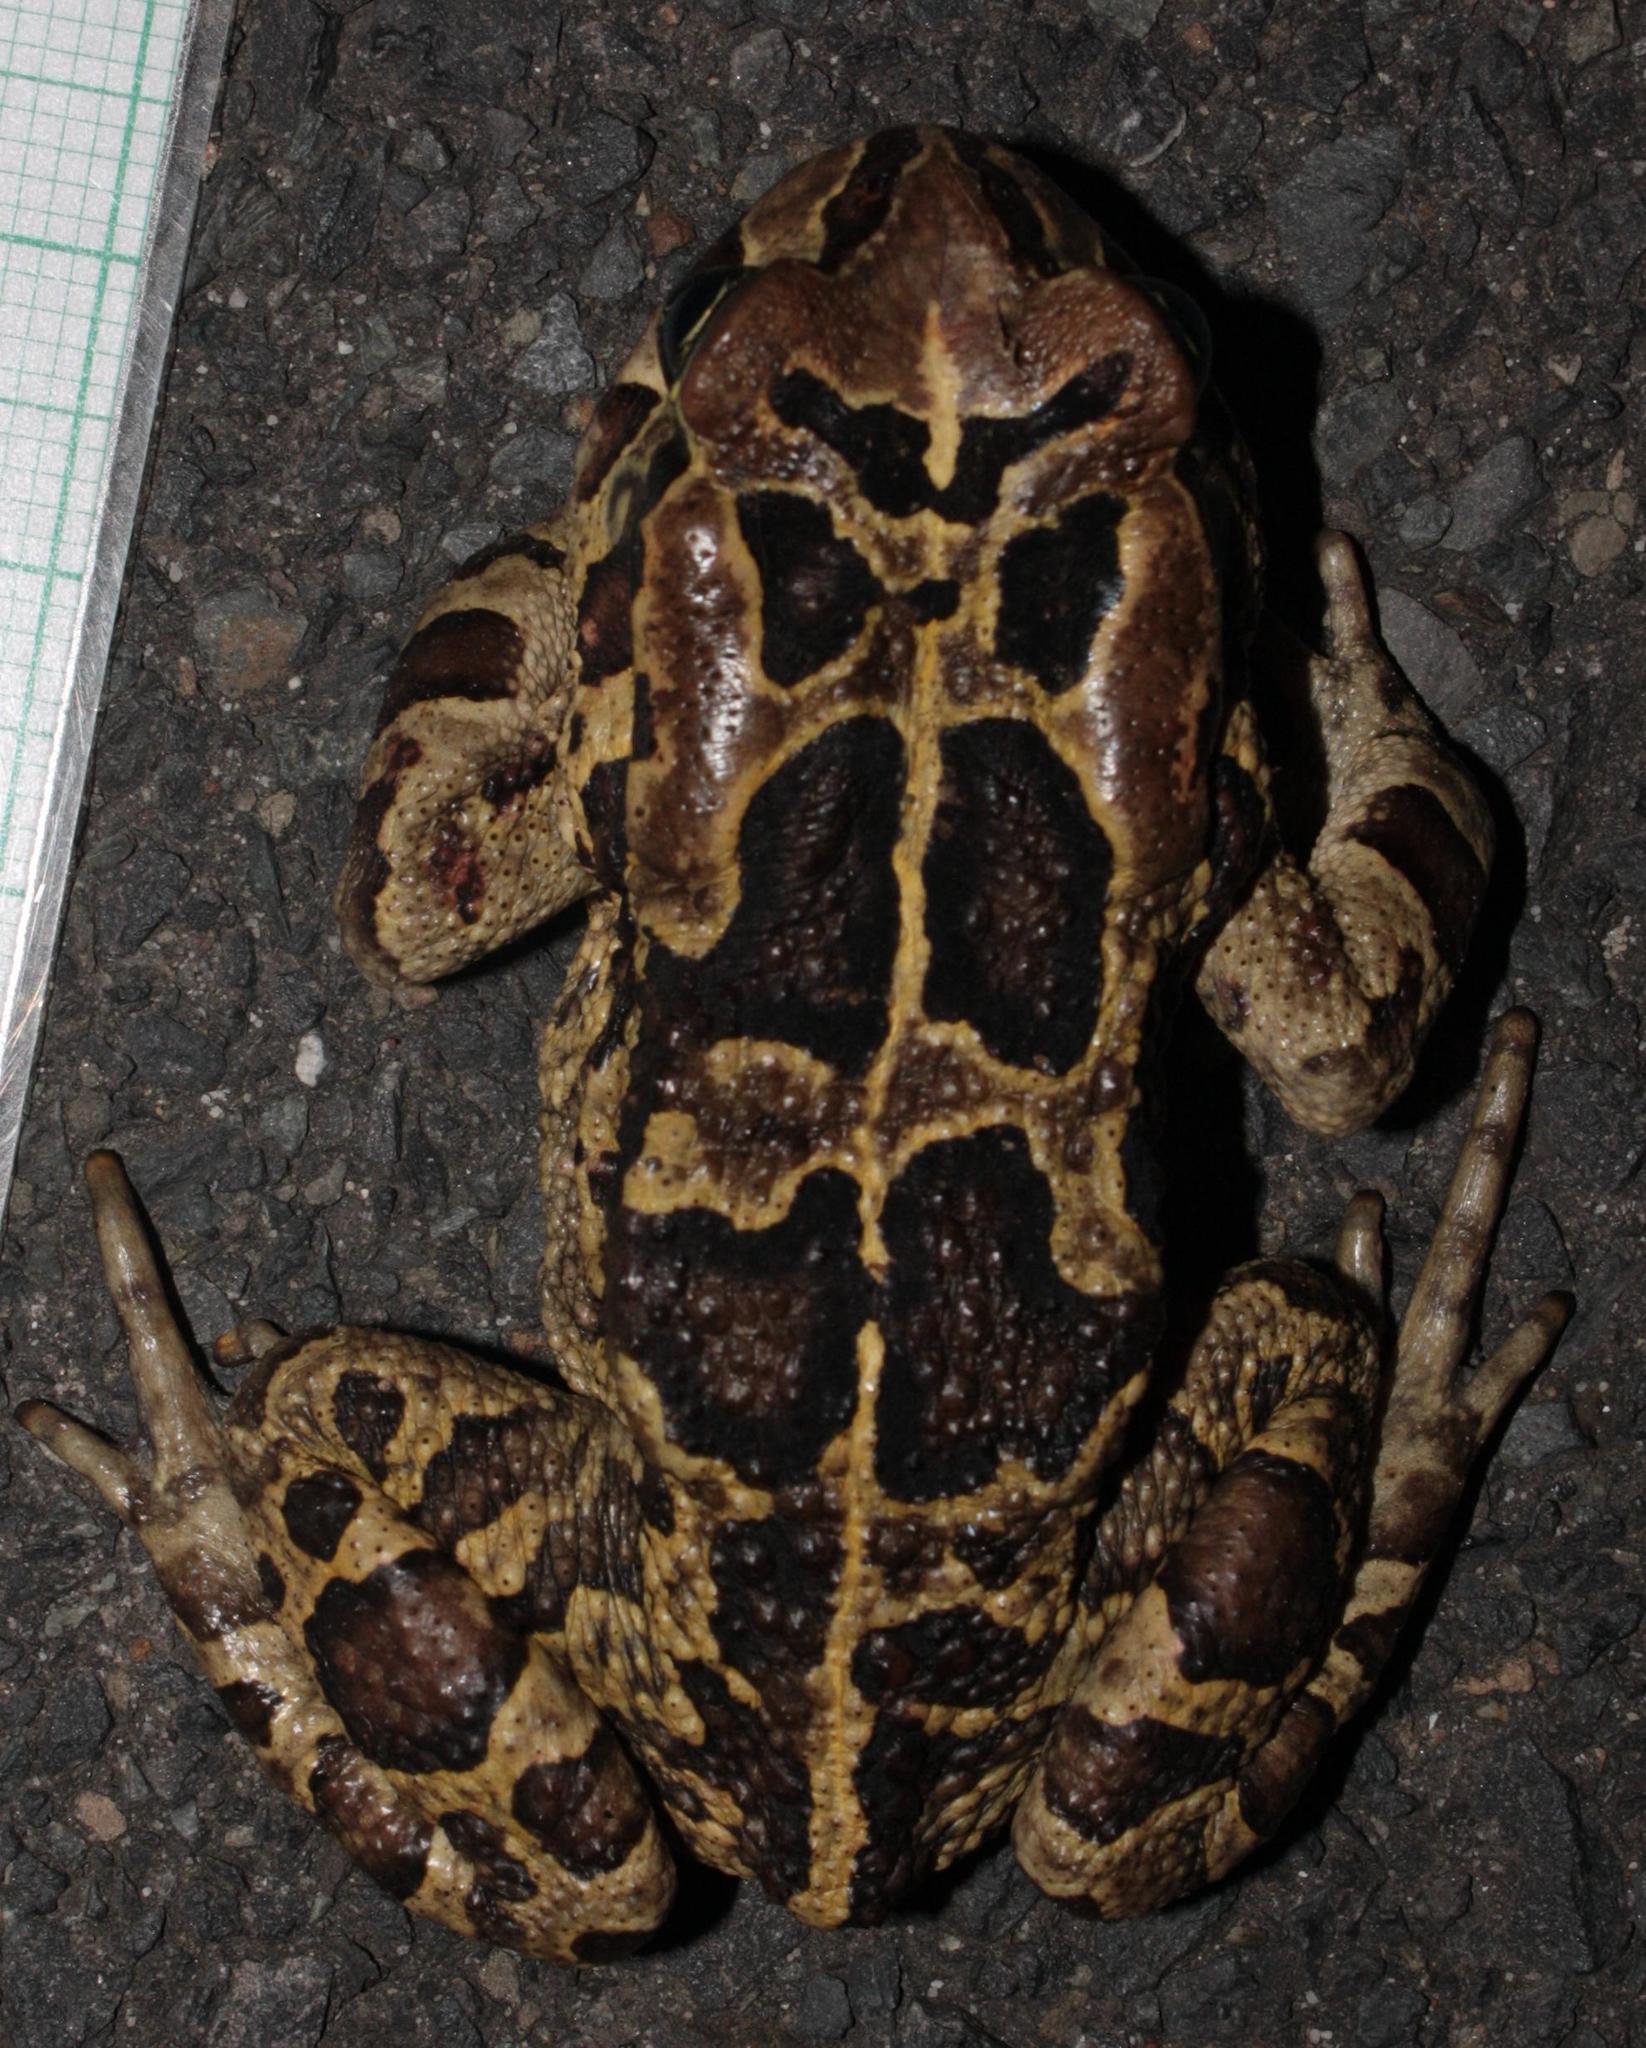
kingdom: Animalia
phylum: Chordata
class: Amphibia
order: Anura
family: Bufonidae
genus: Sclerophrys
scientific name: Sclerophrys pantherina
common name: Panther toad
